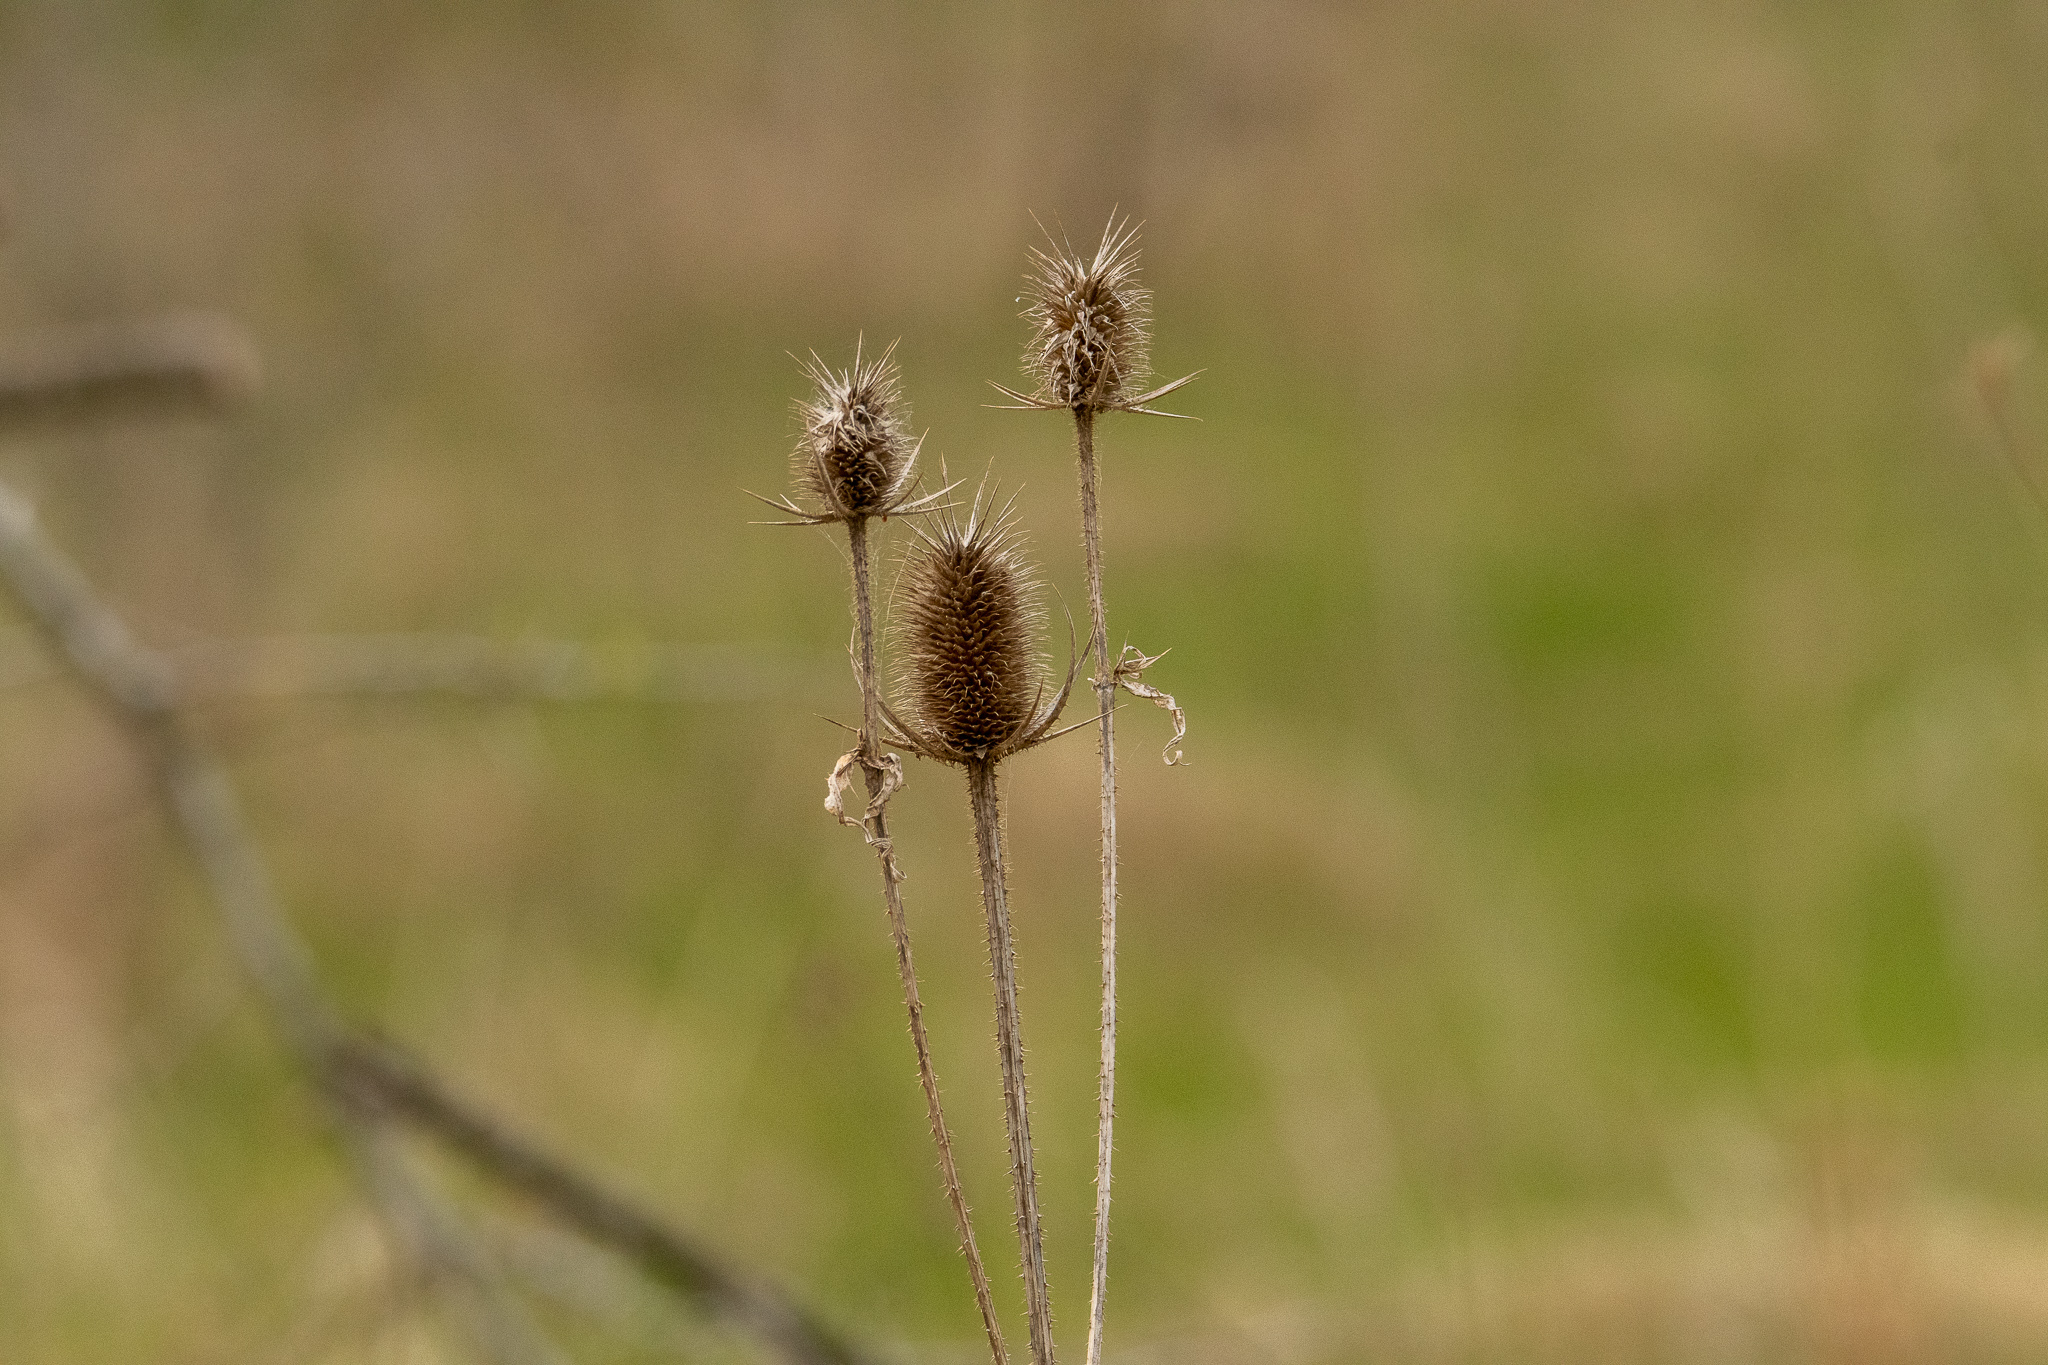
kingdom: Plantae
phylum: Tracheophyta
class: Magnoliopsida
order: Dipsacales
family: Caprifoliaceae
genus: Dipsacus
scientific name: Dipsacus laciniatus
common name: Cut-leaved teasel
